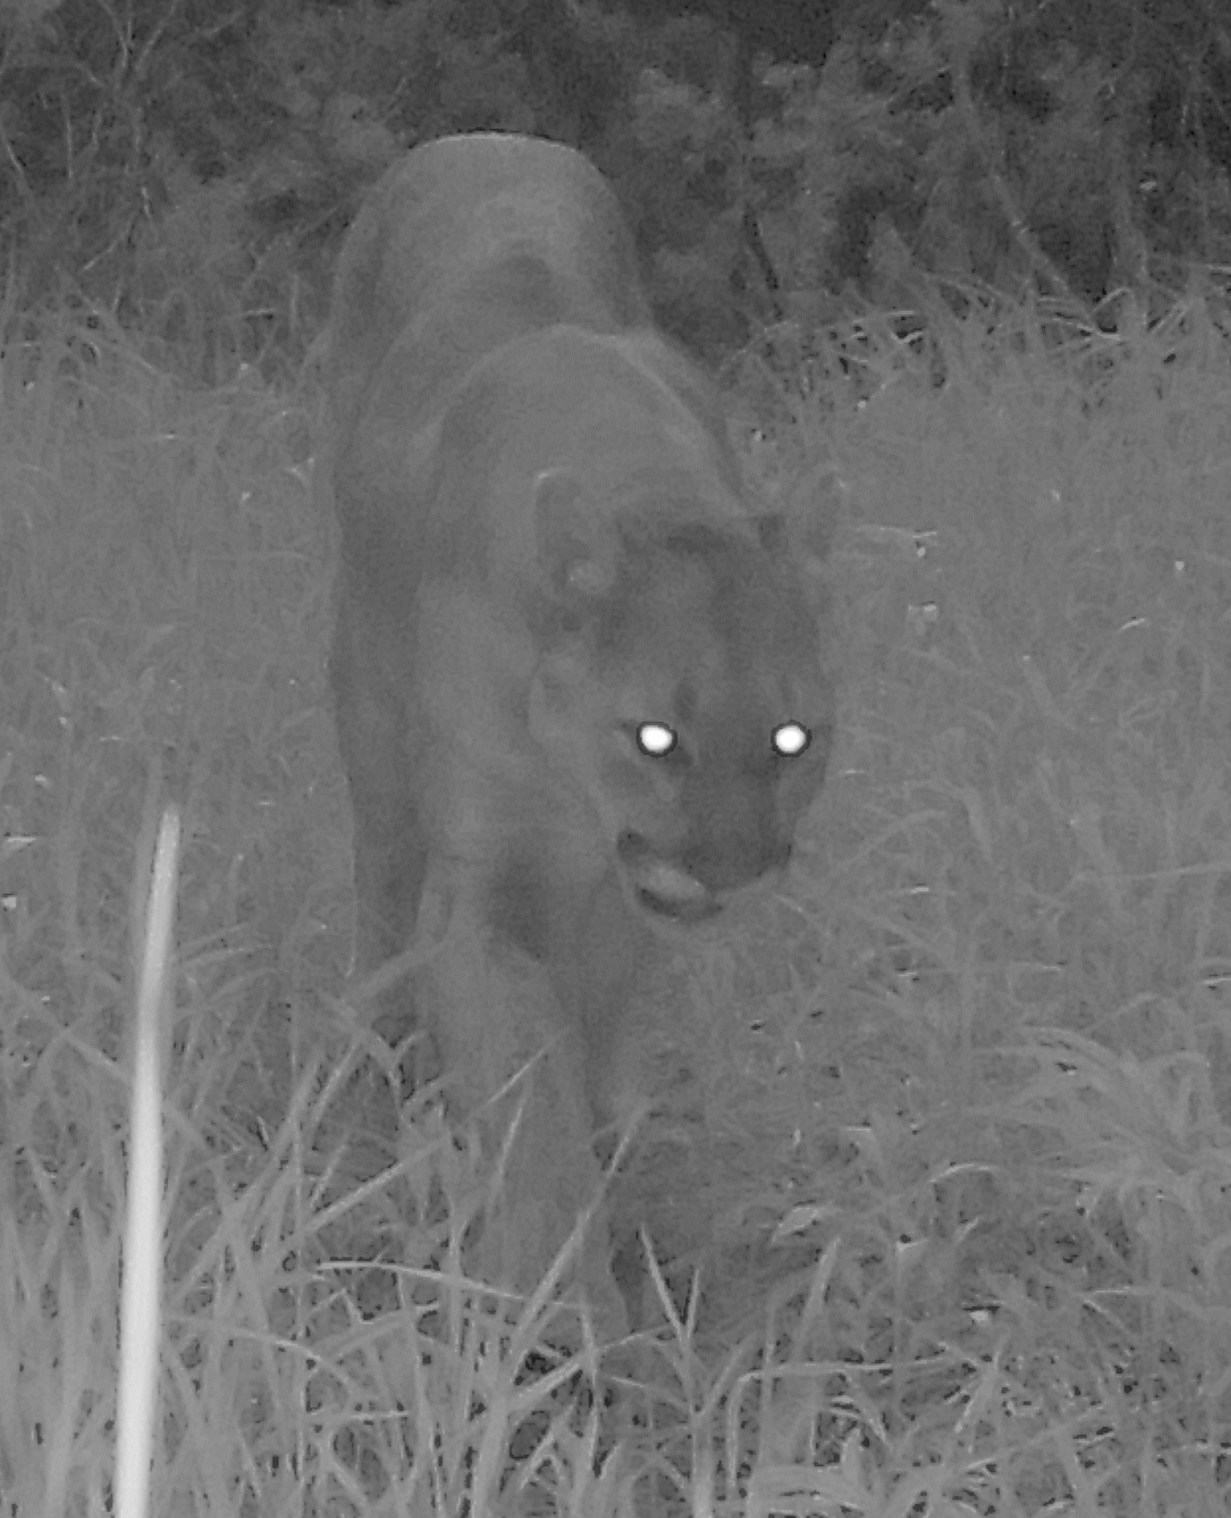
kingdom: Animalia
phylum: Chordata
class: Mammalia
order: Carnivora
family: Felidae
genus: Puma
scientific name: Puma concolor
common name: Puma
